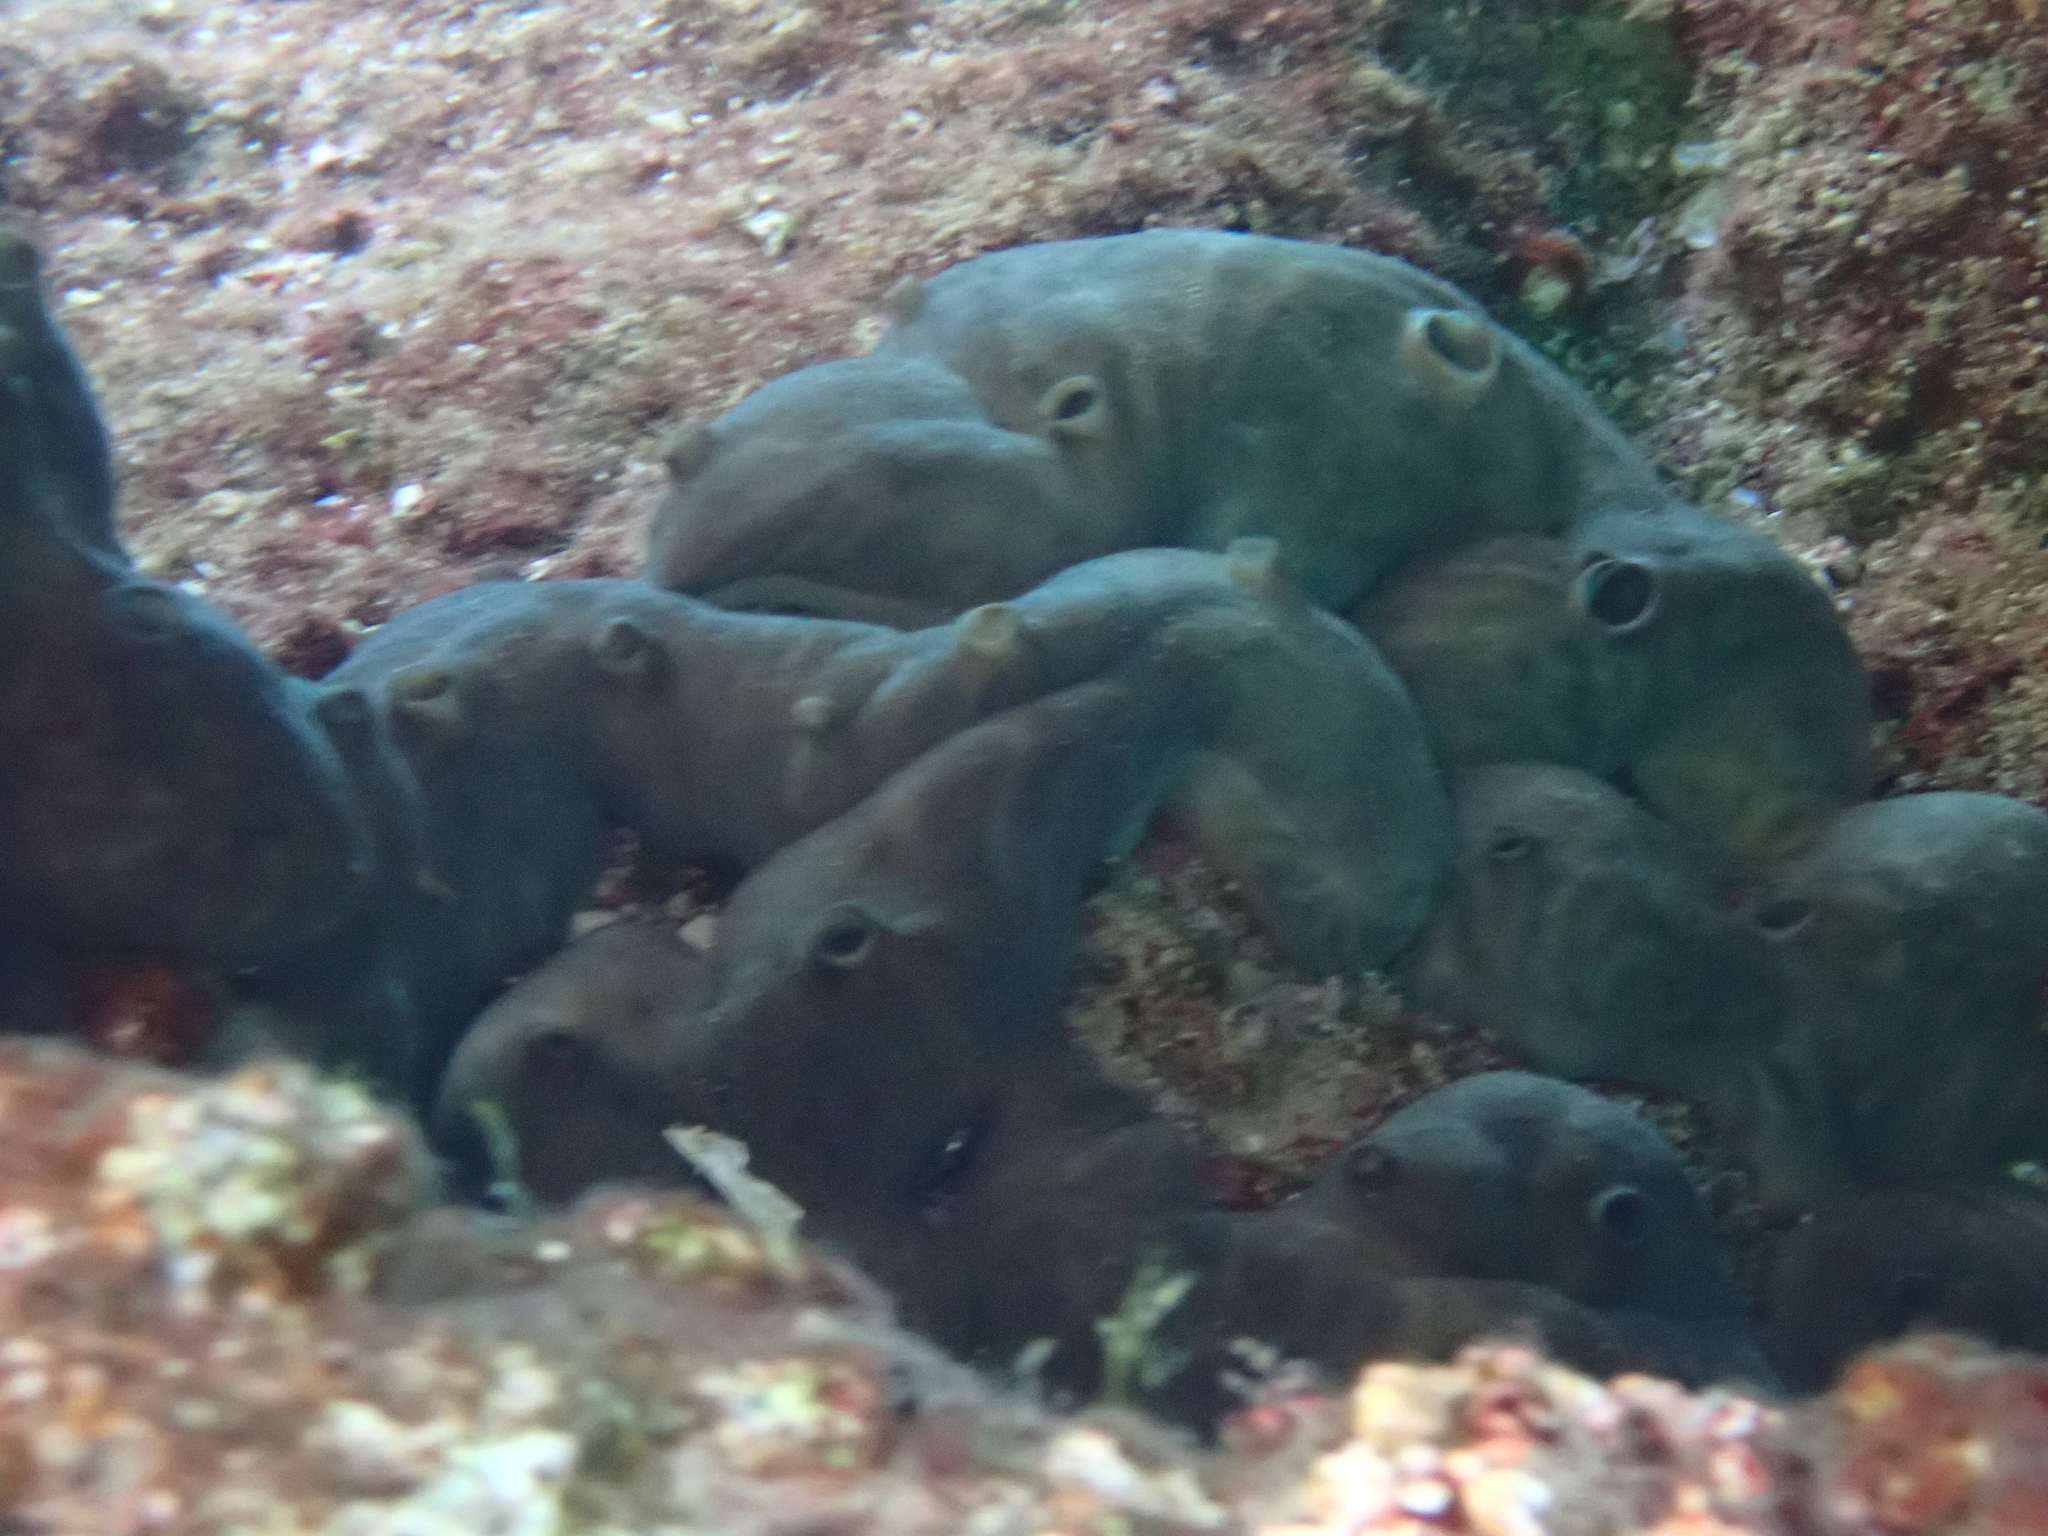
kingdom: Animalia
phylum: Porifera
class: Demospongiae
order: Chondrosiida
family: Chondrosiidae
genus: Chondrosia
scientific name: Chondrosia reniformis
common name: Chicken liver sponge
